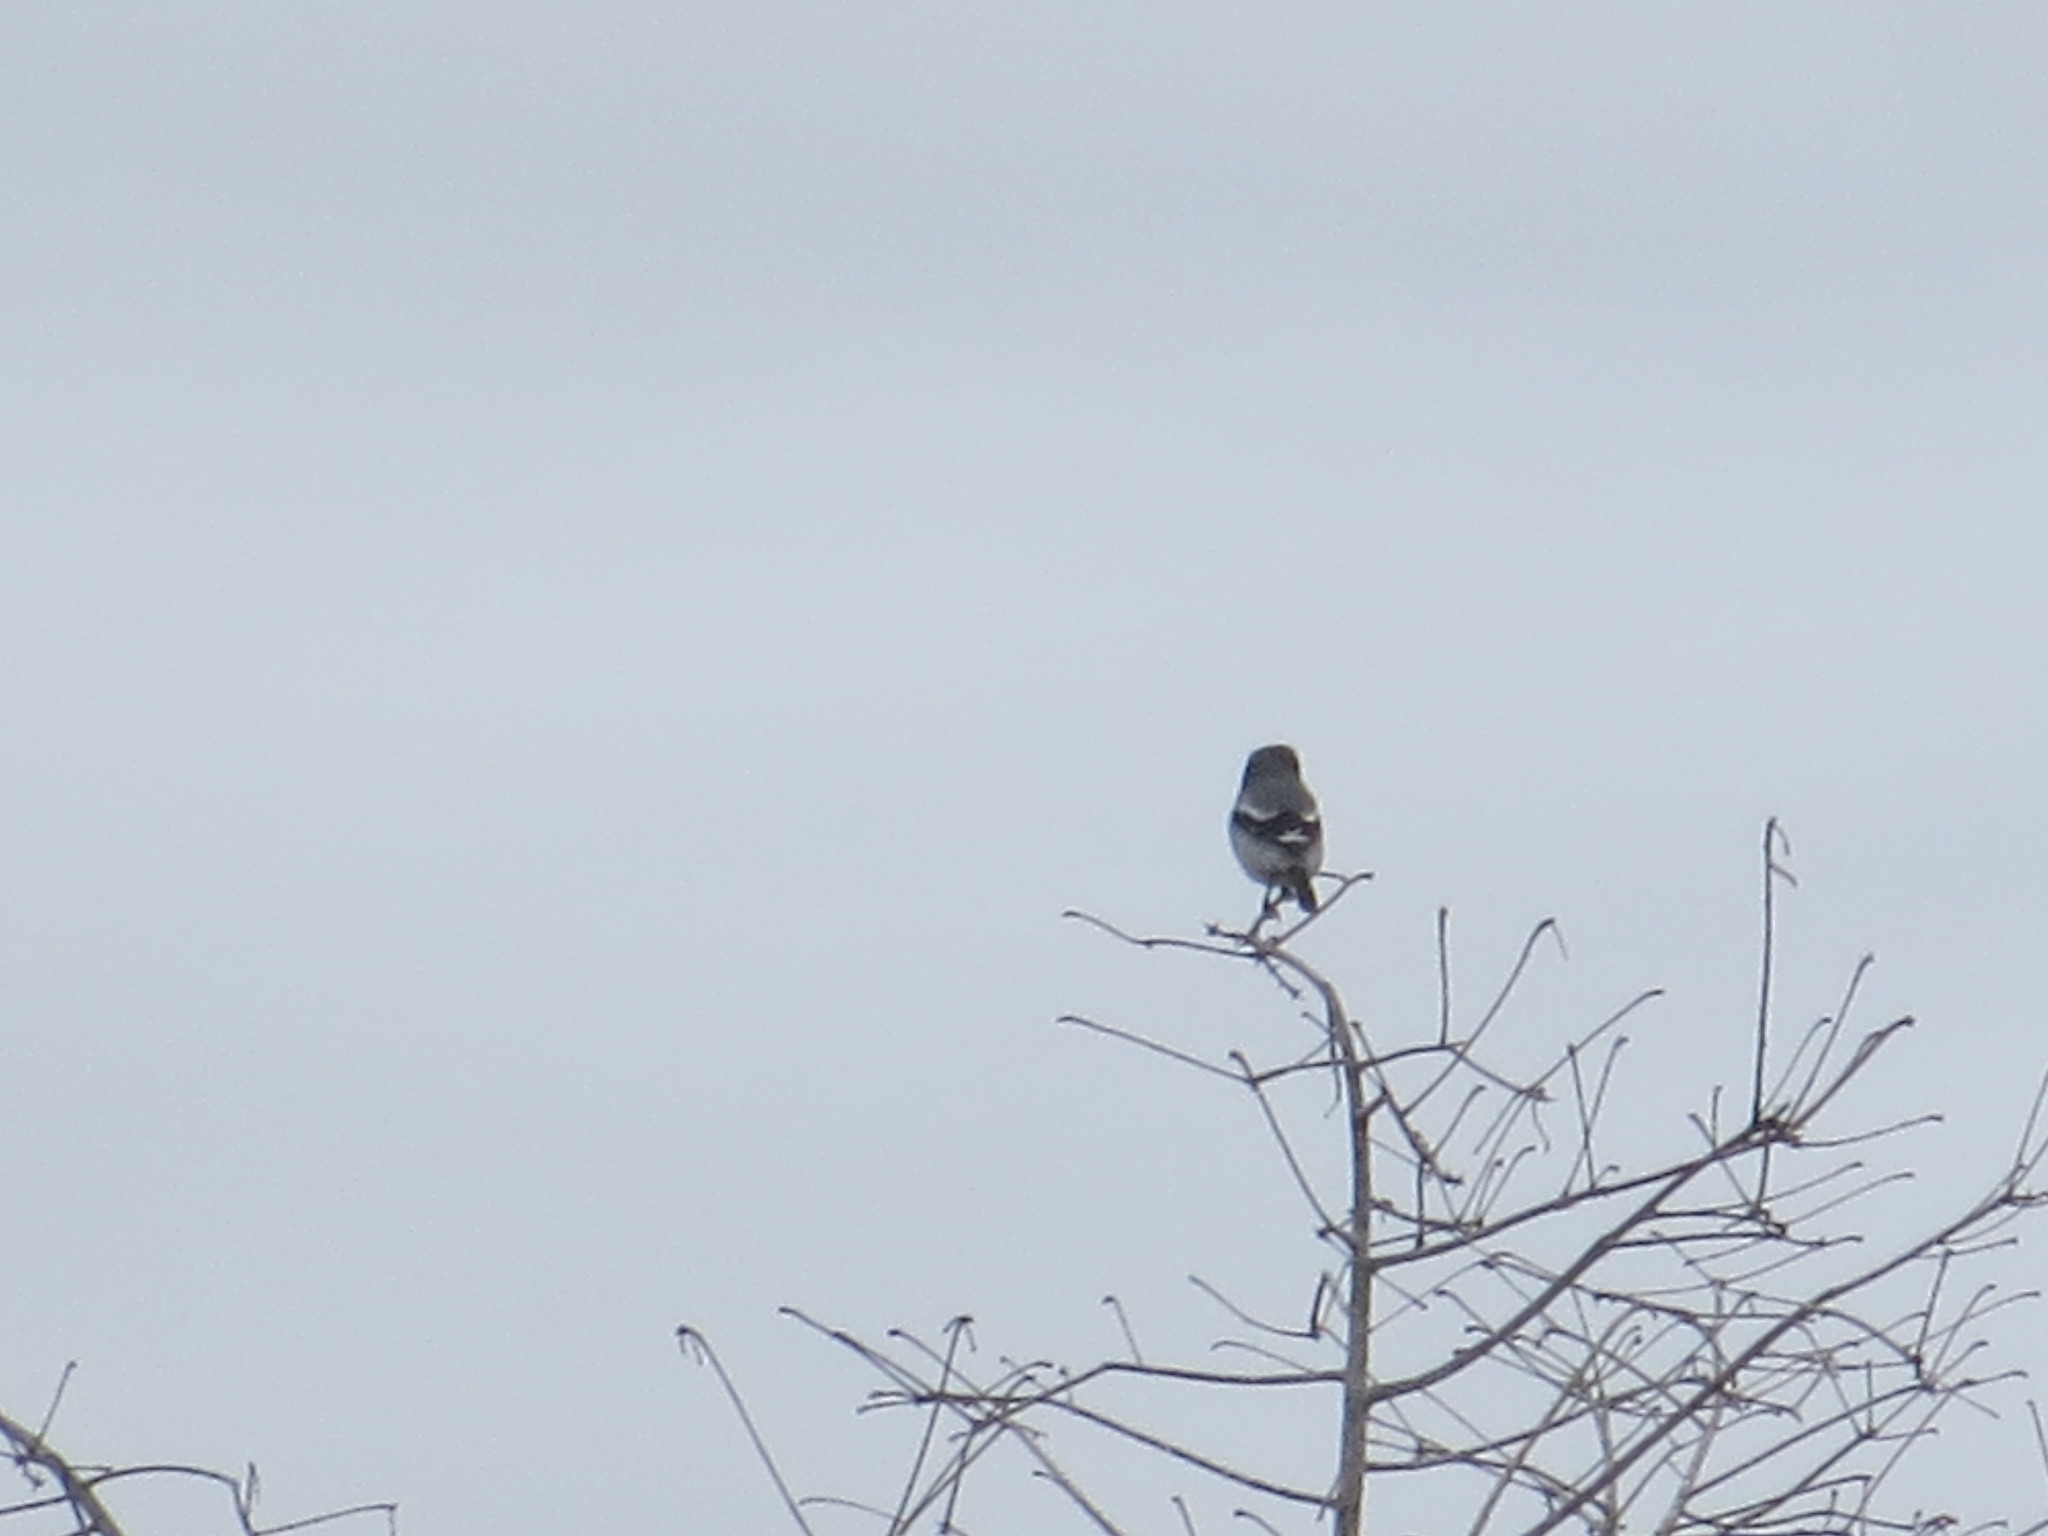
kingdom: Animalia
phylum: Chordata
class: Aves
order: Passeriformes
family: Laniidae
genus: Lanius
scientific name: Lanius ludovicianus
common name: Loggerhead shrike
